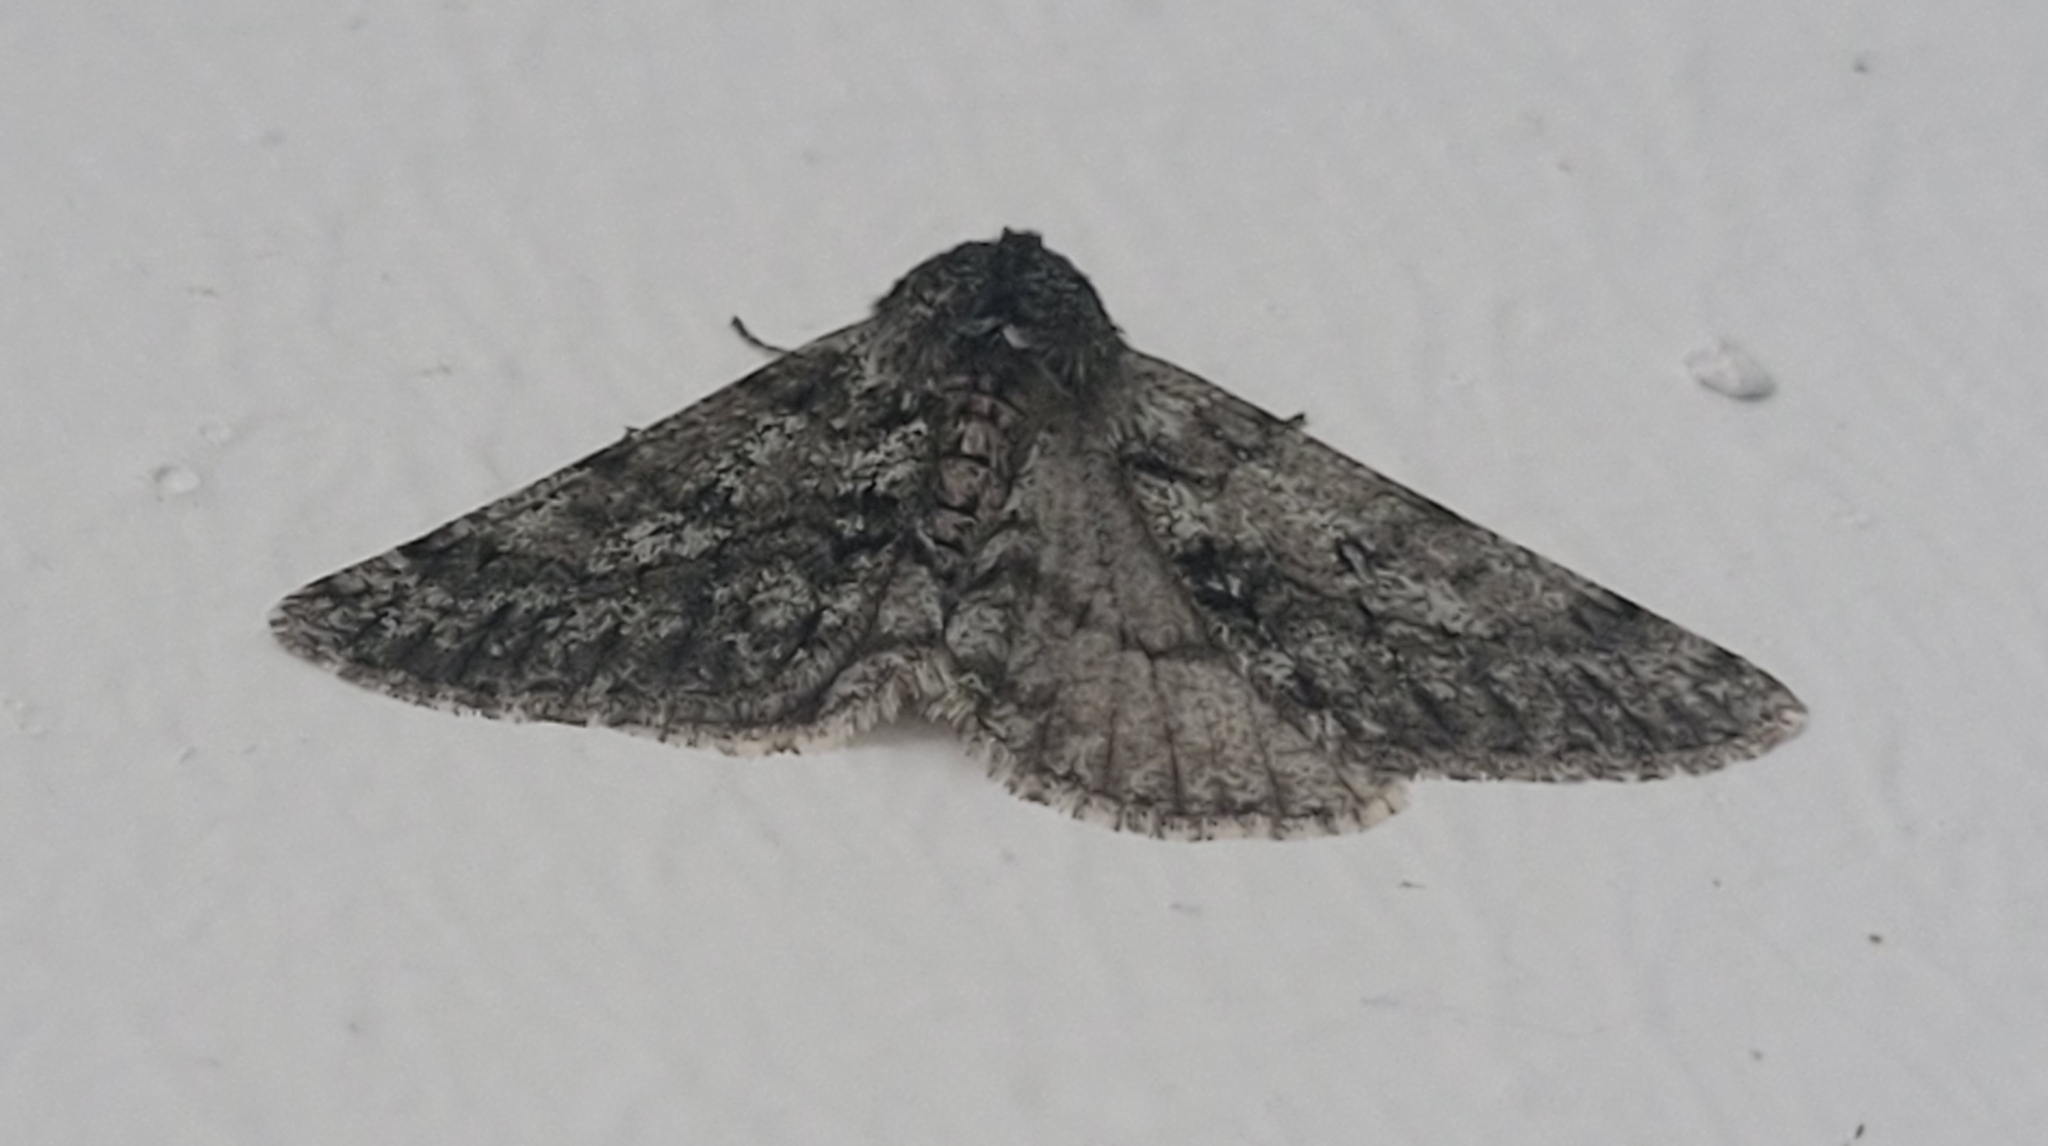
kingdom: Animalia
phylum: Arthropoda
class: Insecta
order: Lepidoptera
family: Geometridae
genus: Phigalia
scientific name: Phigalia pilosaria
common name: Pale brindled beauty
